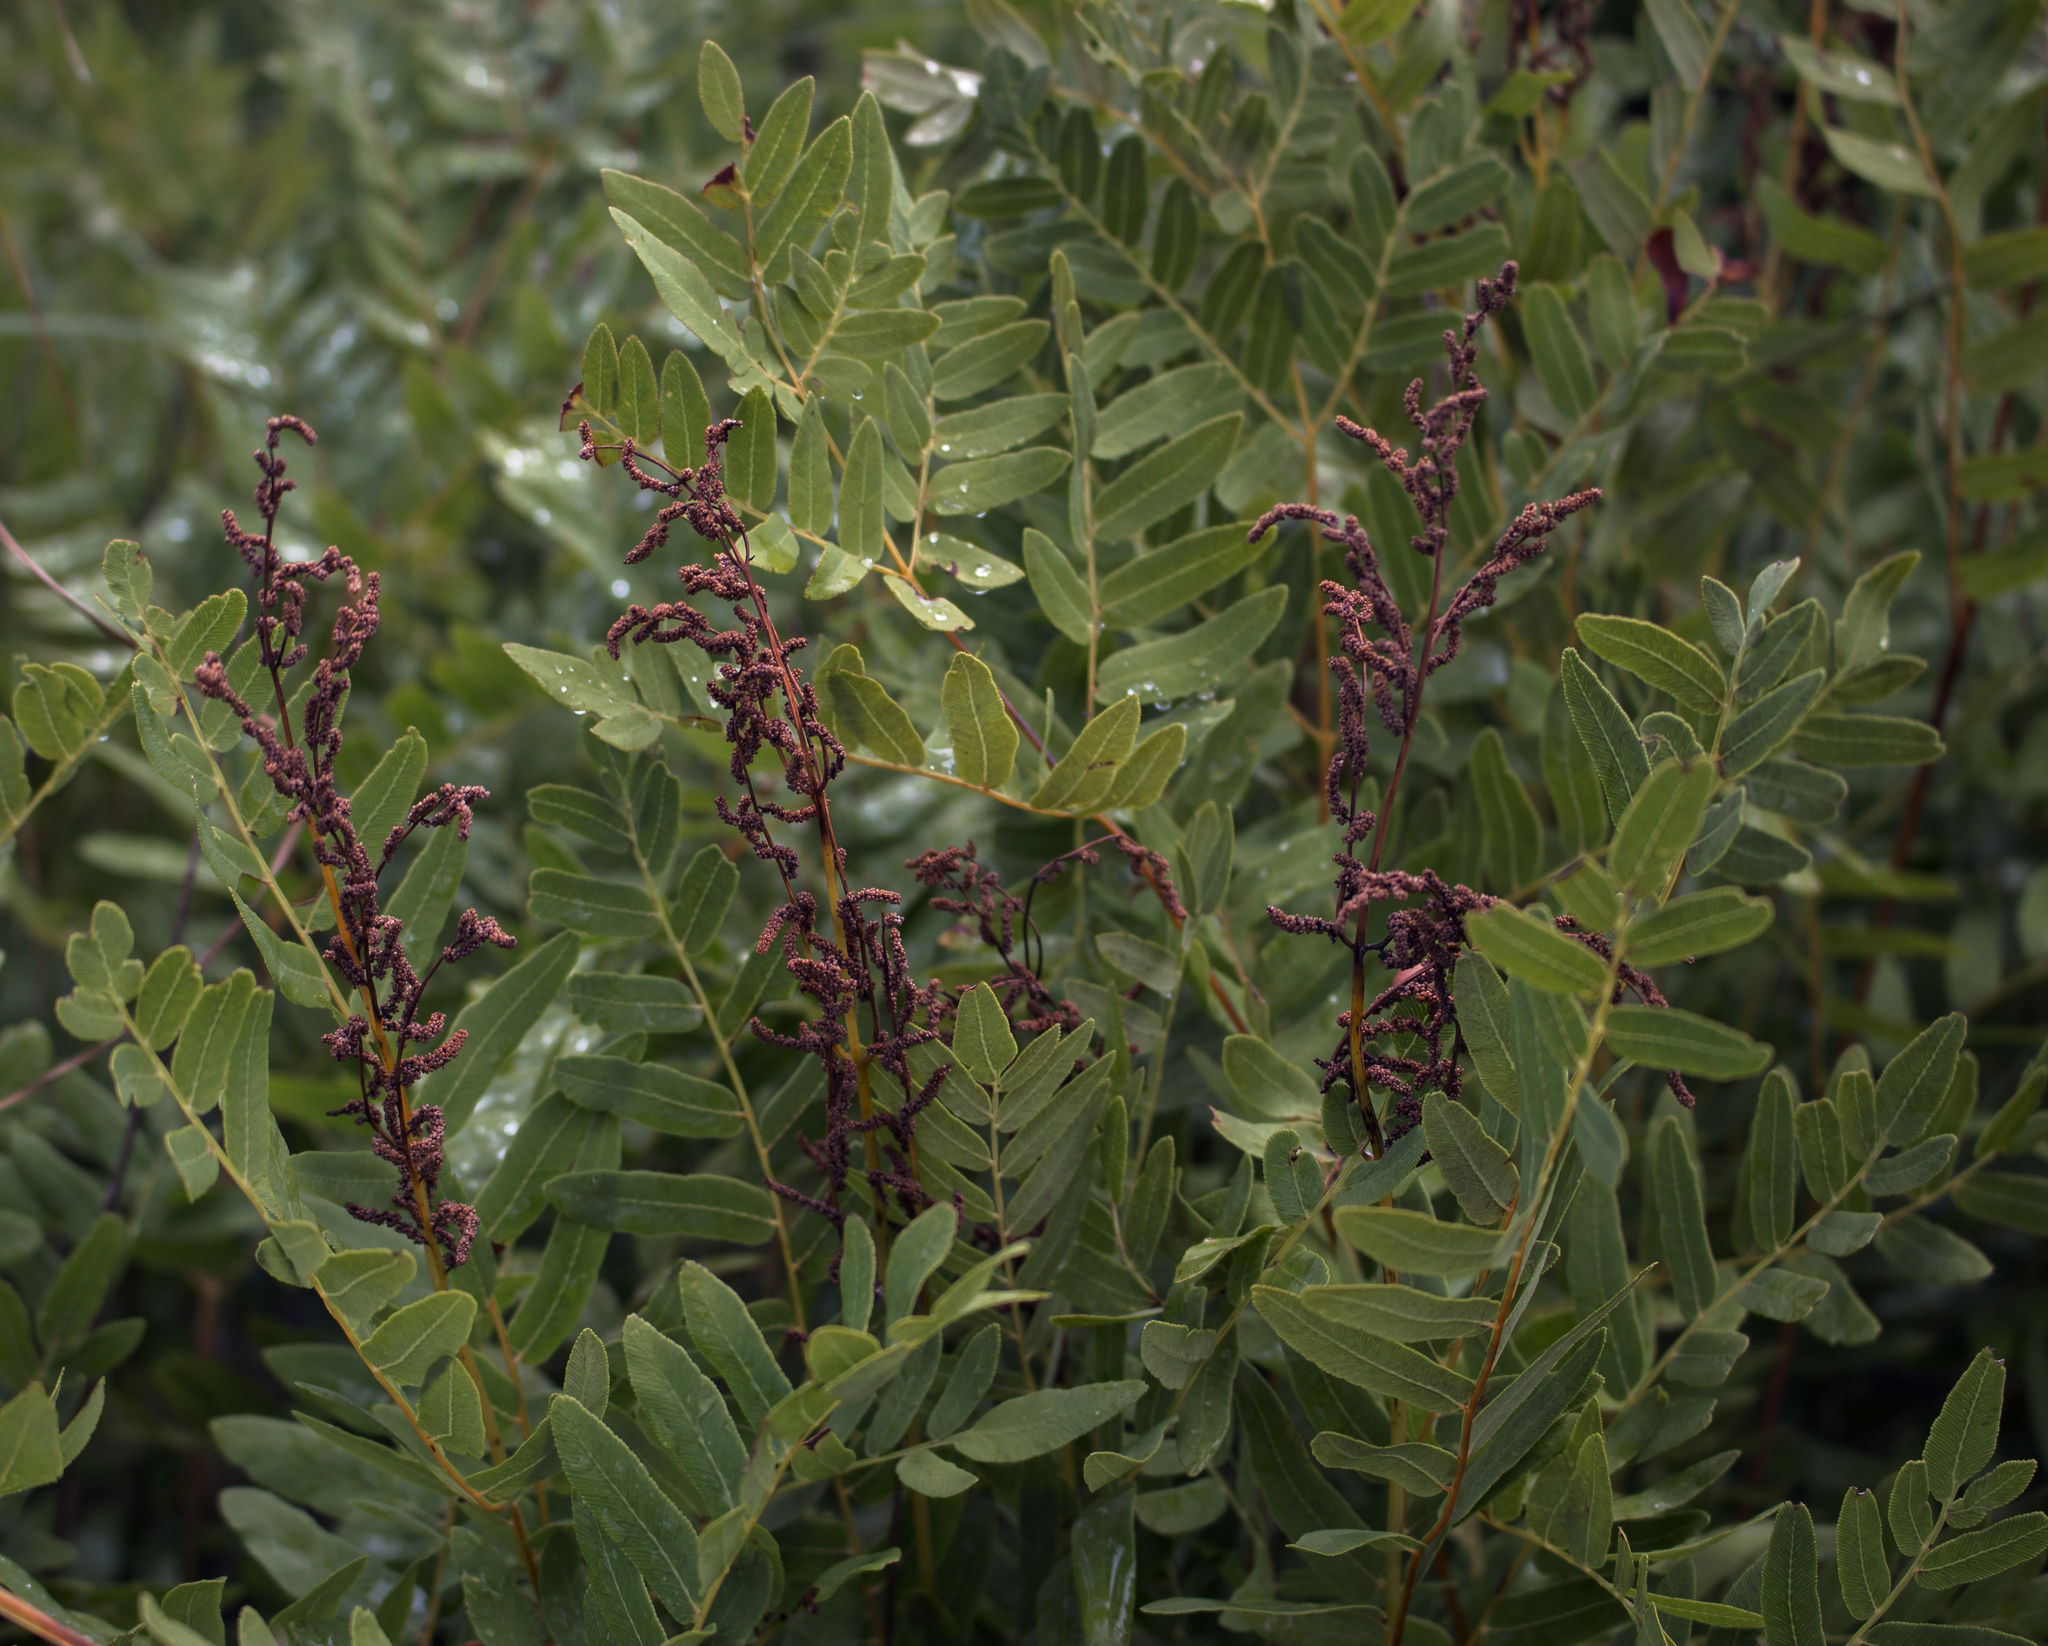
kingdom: Plantae
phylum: Tracheophyta
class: Polypodiopsida
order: Osmundales
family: Osmundaceae
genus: Osmunda
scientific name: Osmunda spectabilis
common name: American royal fern
